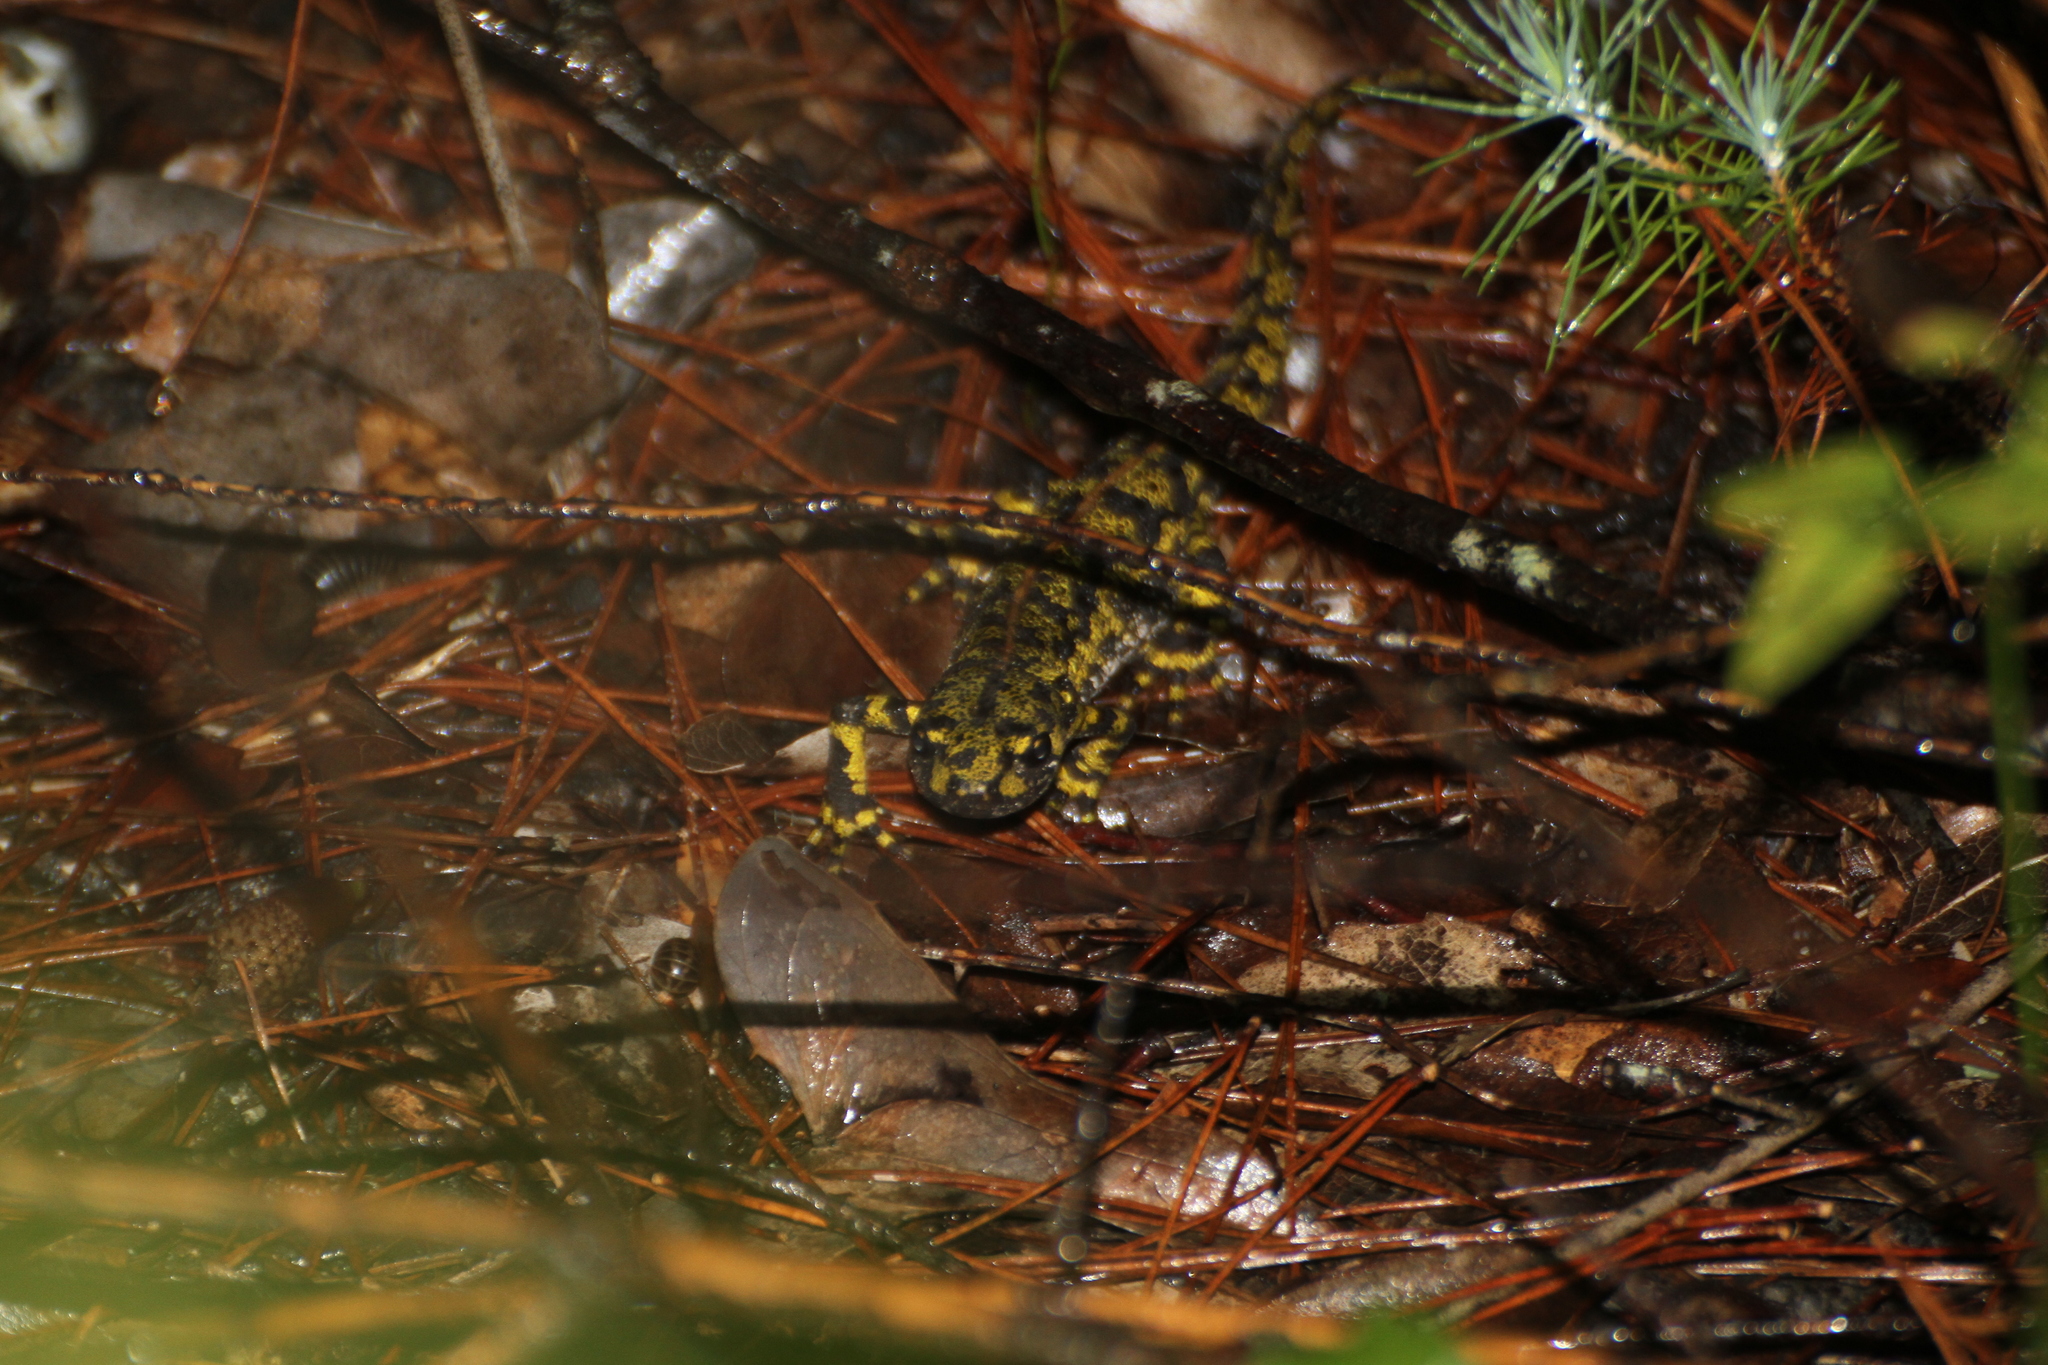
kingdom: Animalia
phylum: Chordata
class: Amphibia
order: Caudata
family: Salamandridae
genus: Triturus
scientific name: Triturus marmoratus
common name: Marbled newt
